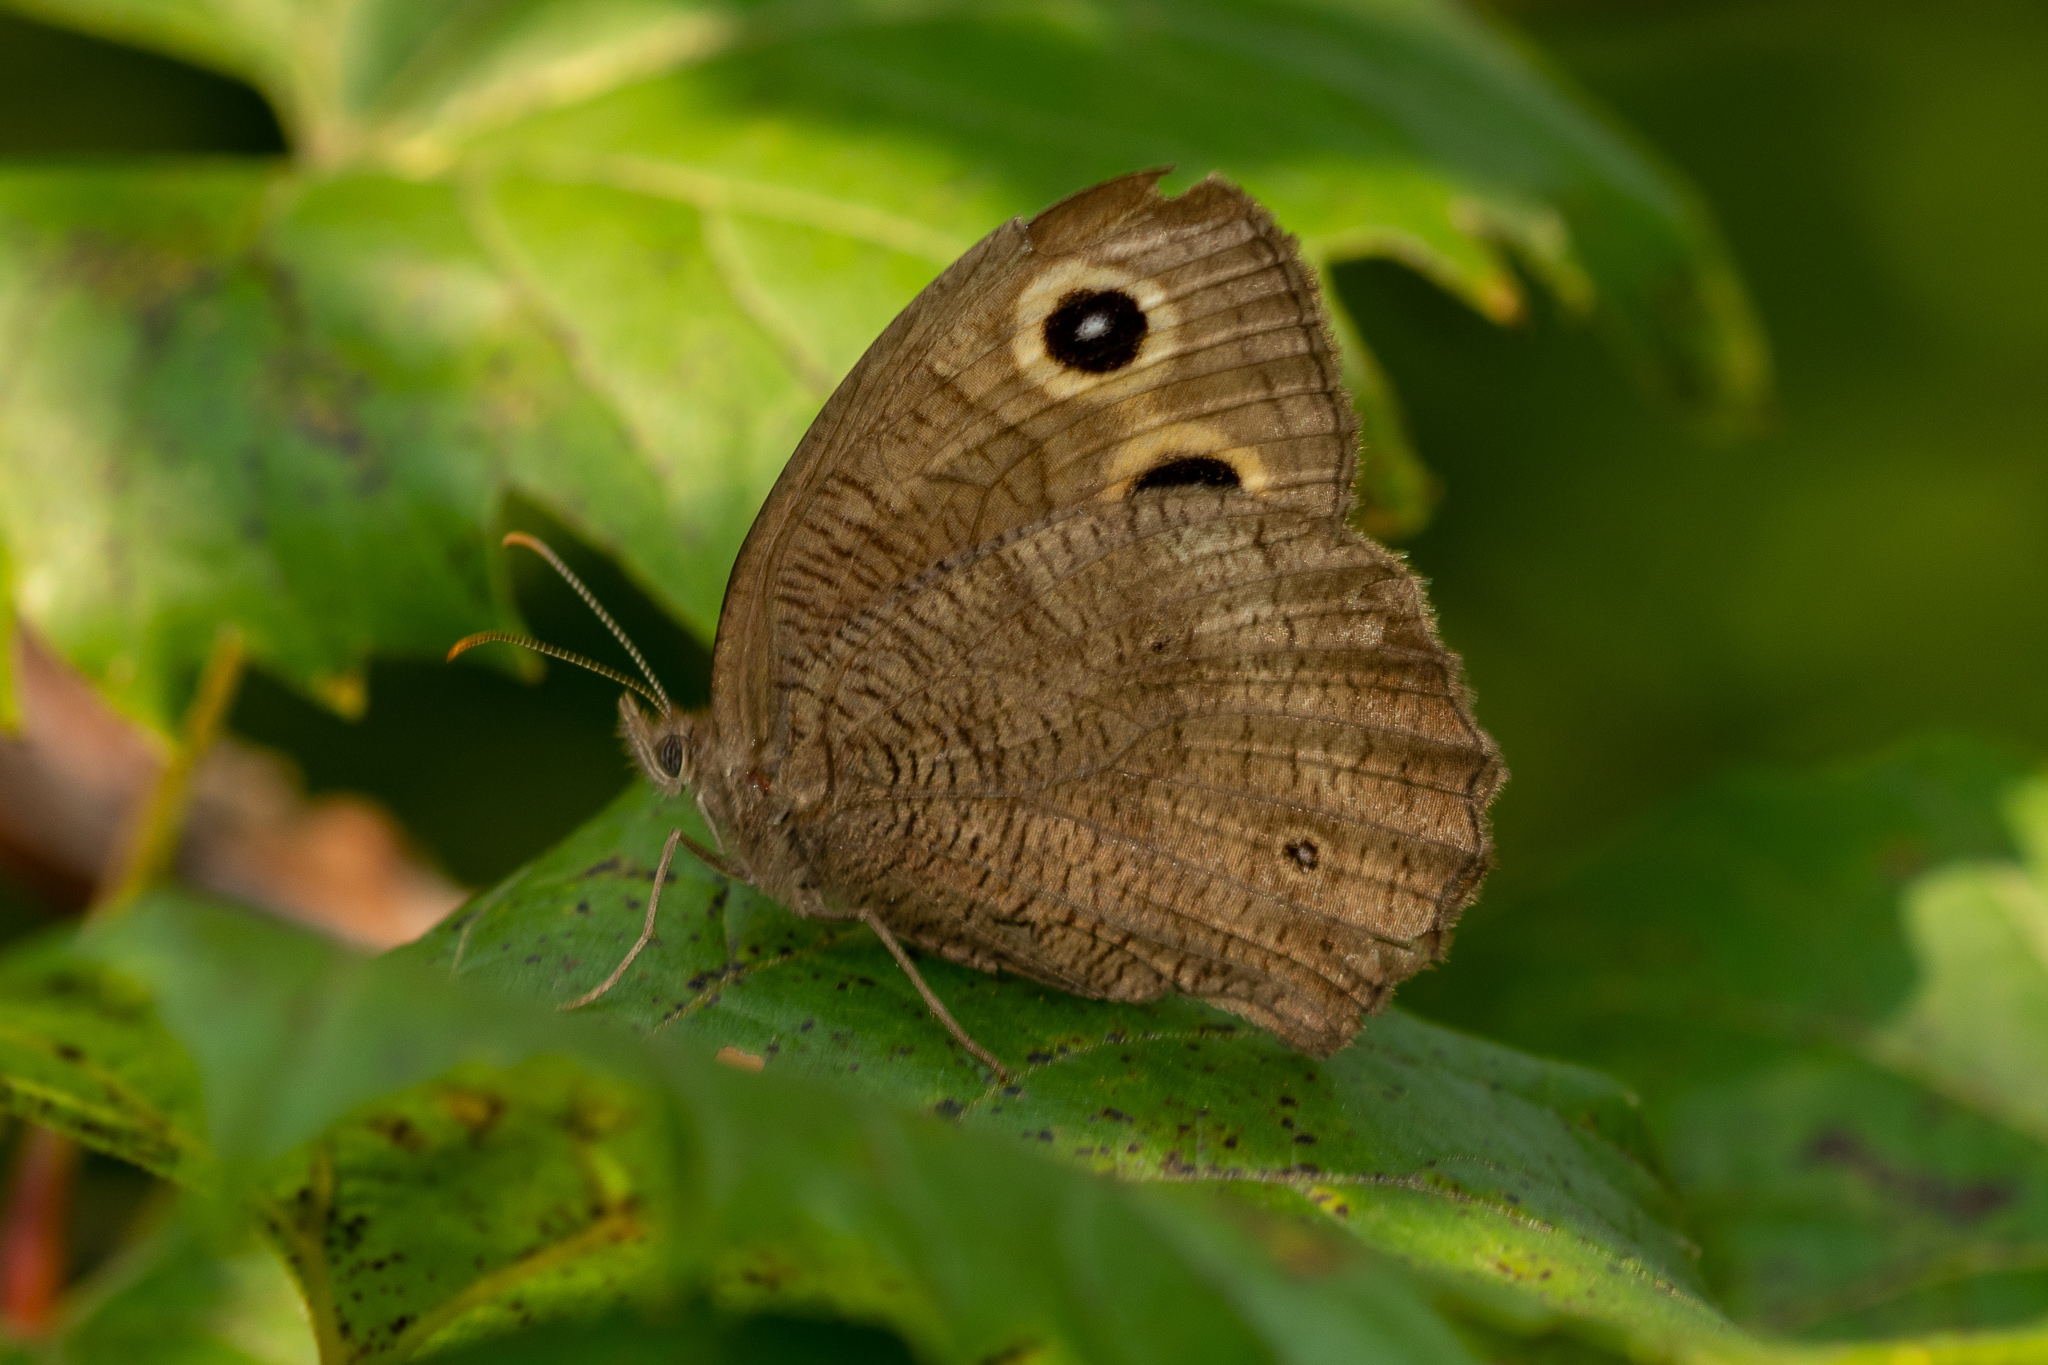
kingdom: Animalia
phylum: Arthropoda
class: Insecta
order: Lepidoptera
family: Nymphalidae
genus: Cercyonis
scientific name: Cercyonis pegala
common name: Common wood-nymph
